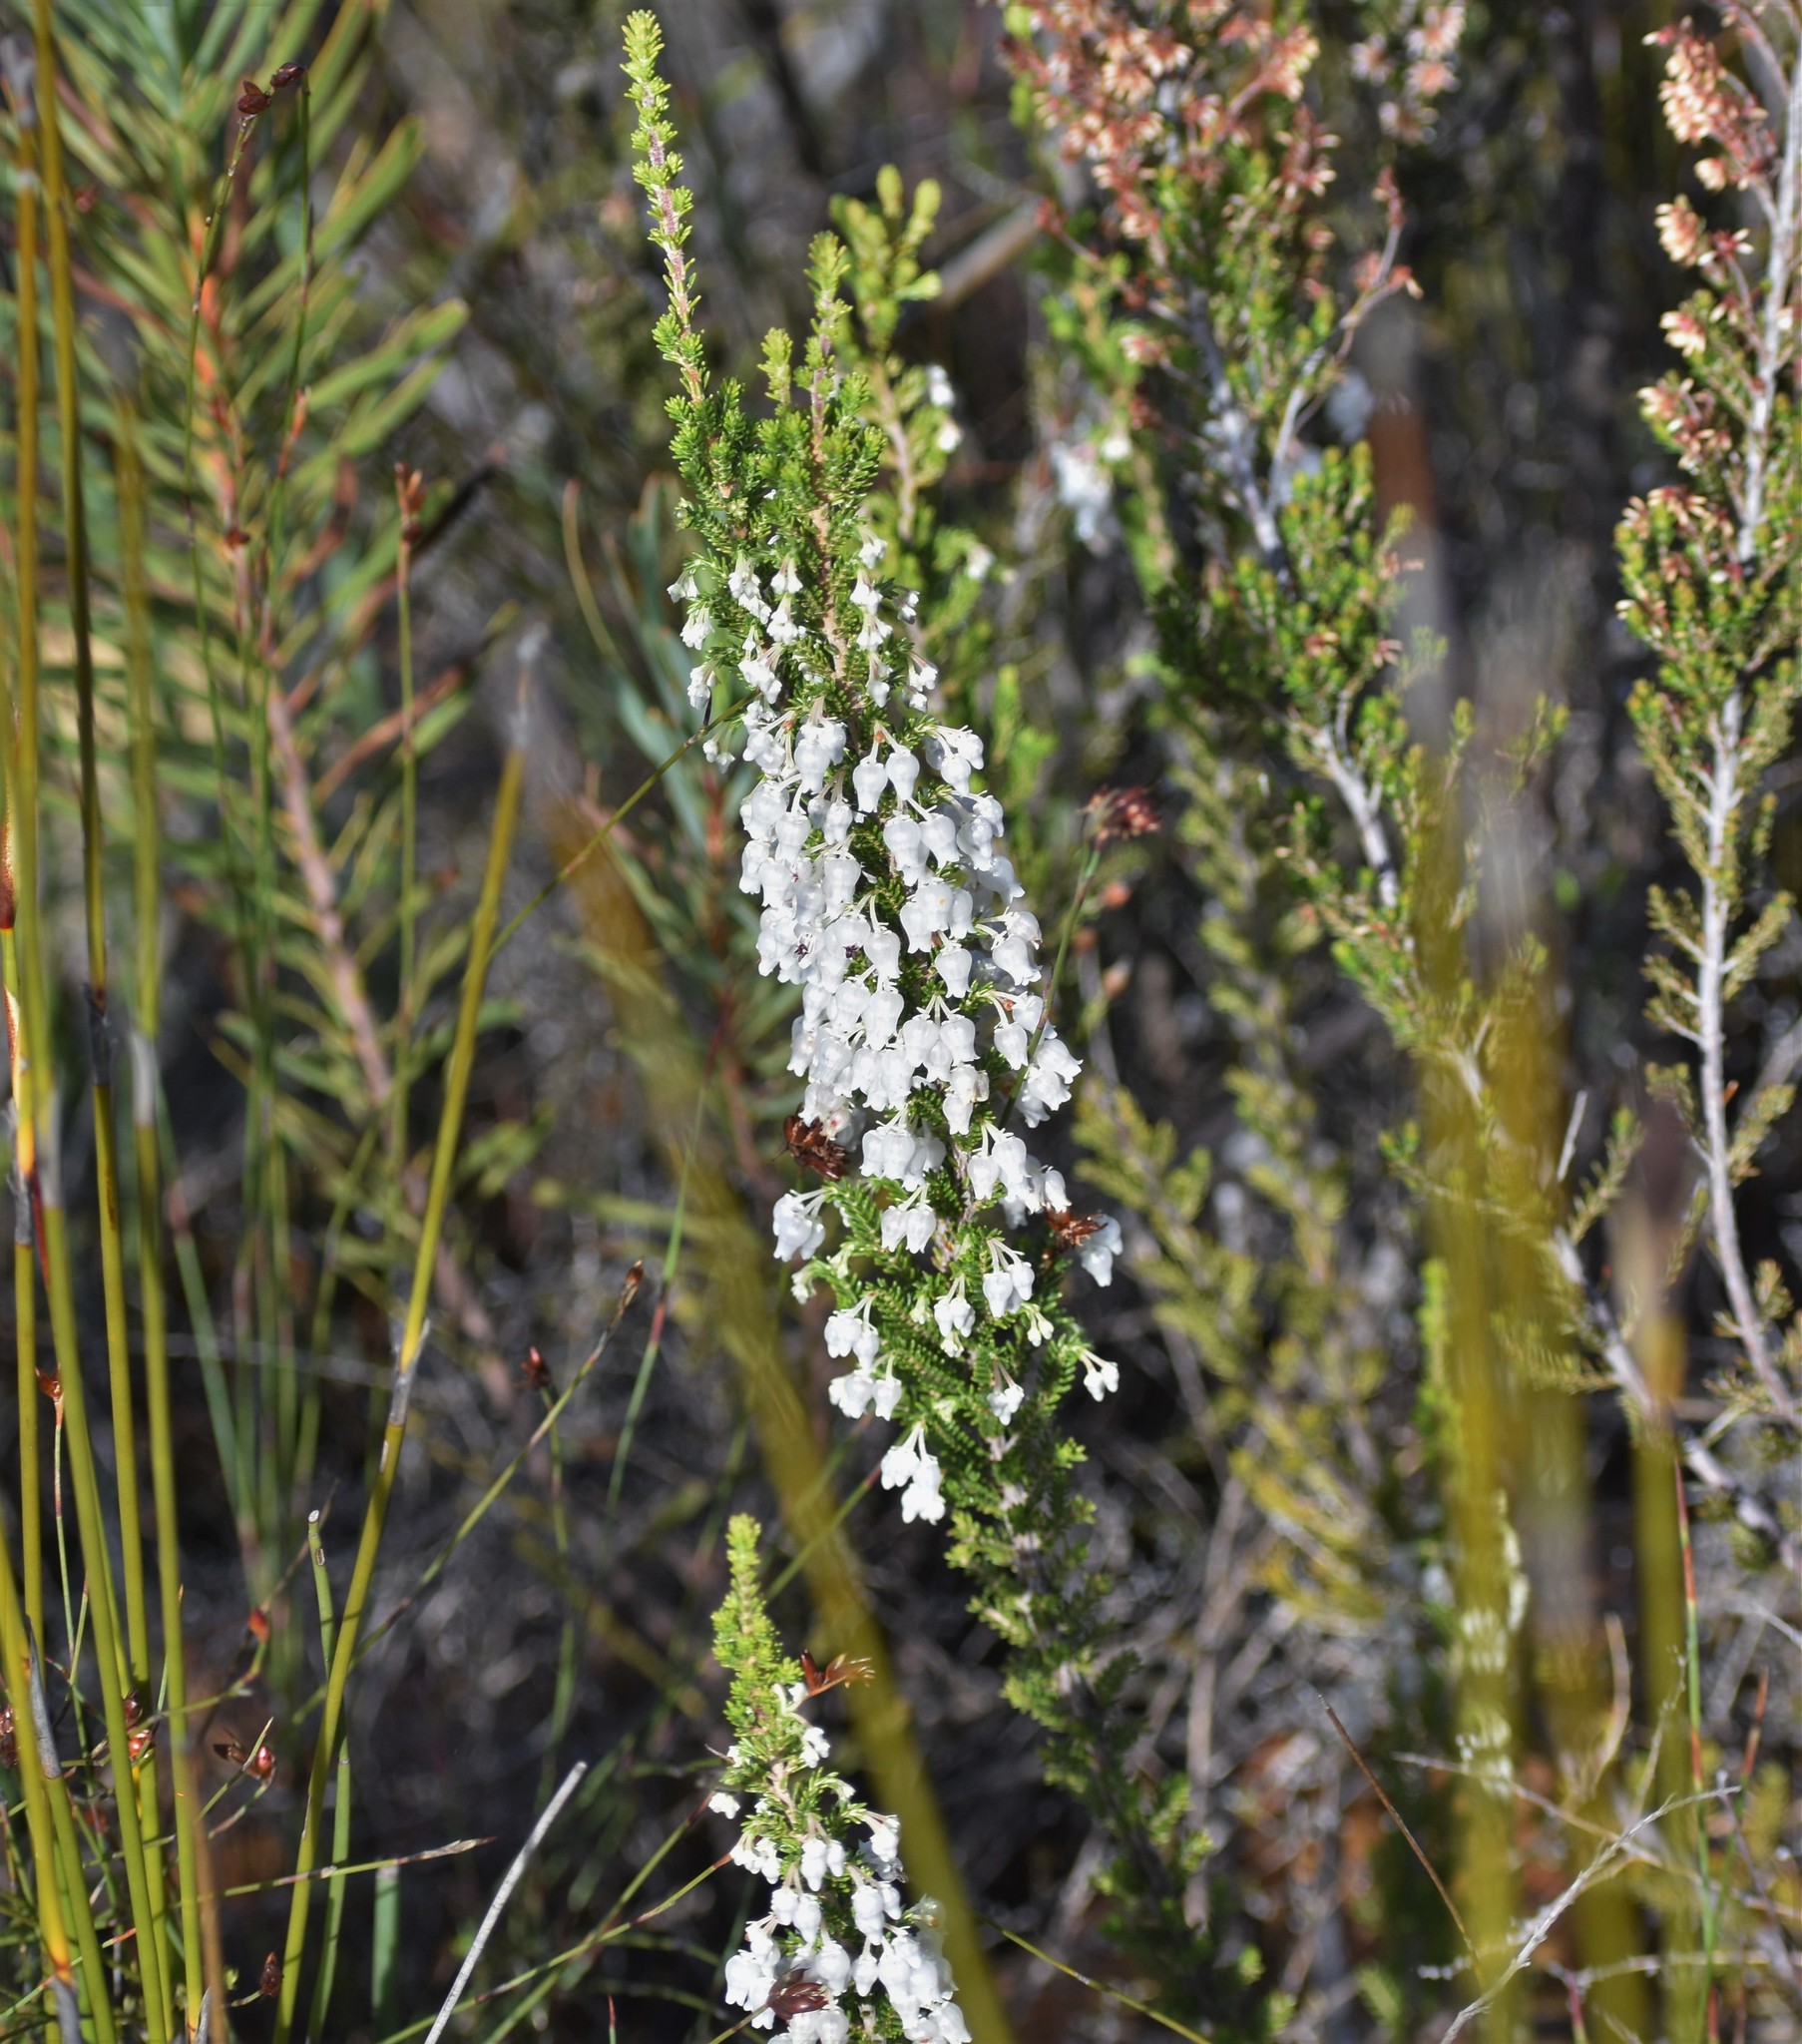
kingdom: Plantae
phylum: Tracheophyta
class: Magnoliopsida
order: Ericales
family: Ericaceae
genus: Erica
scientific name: Erica glomiflora
